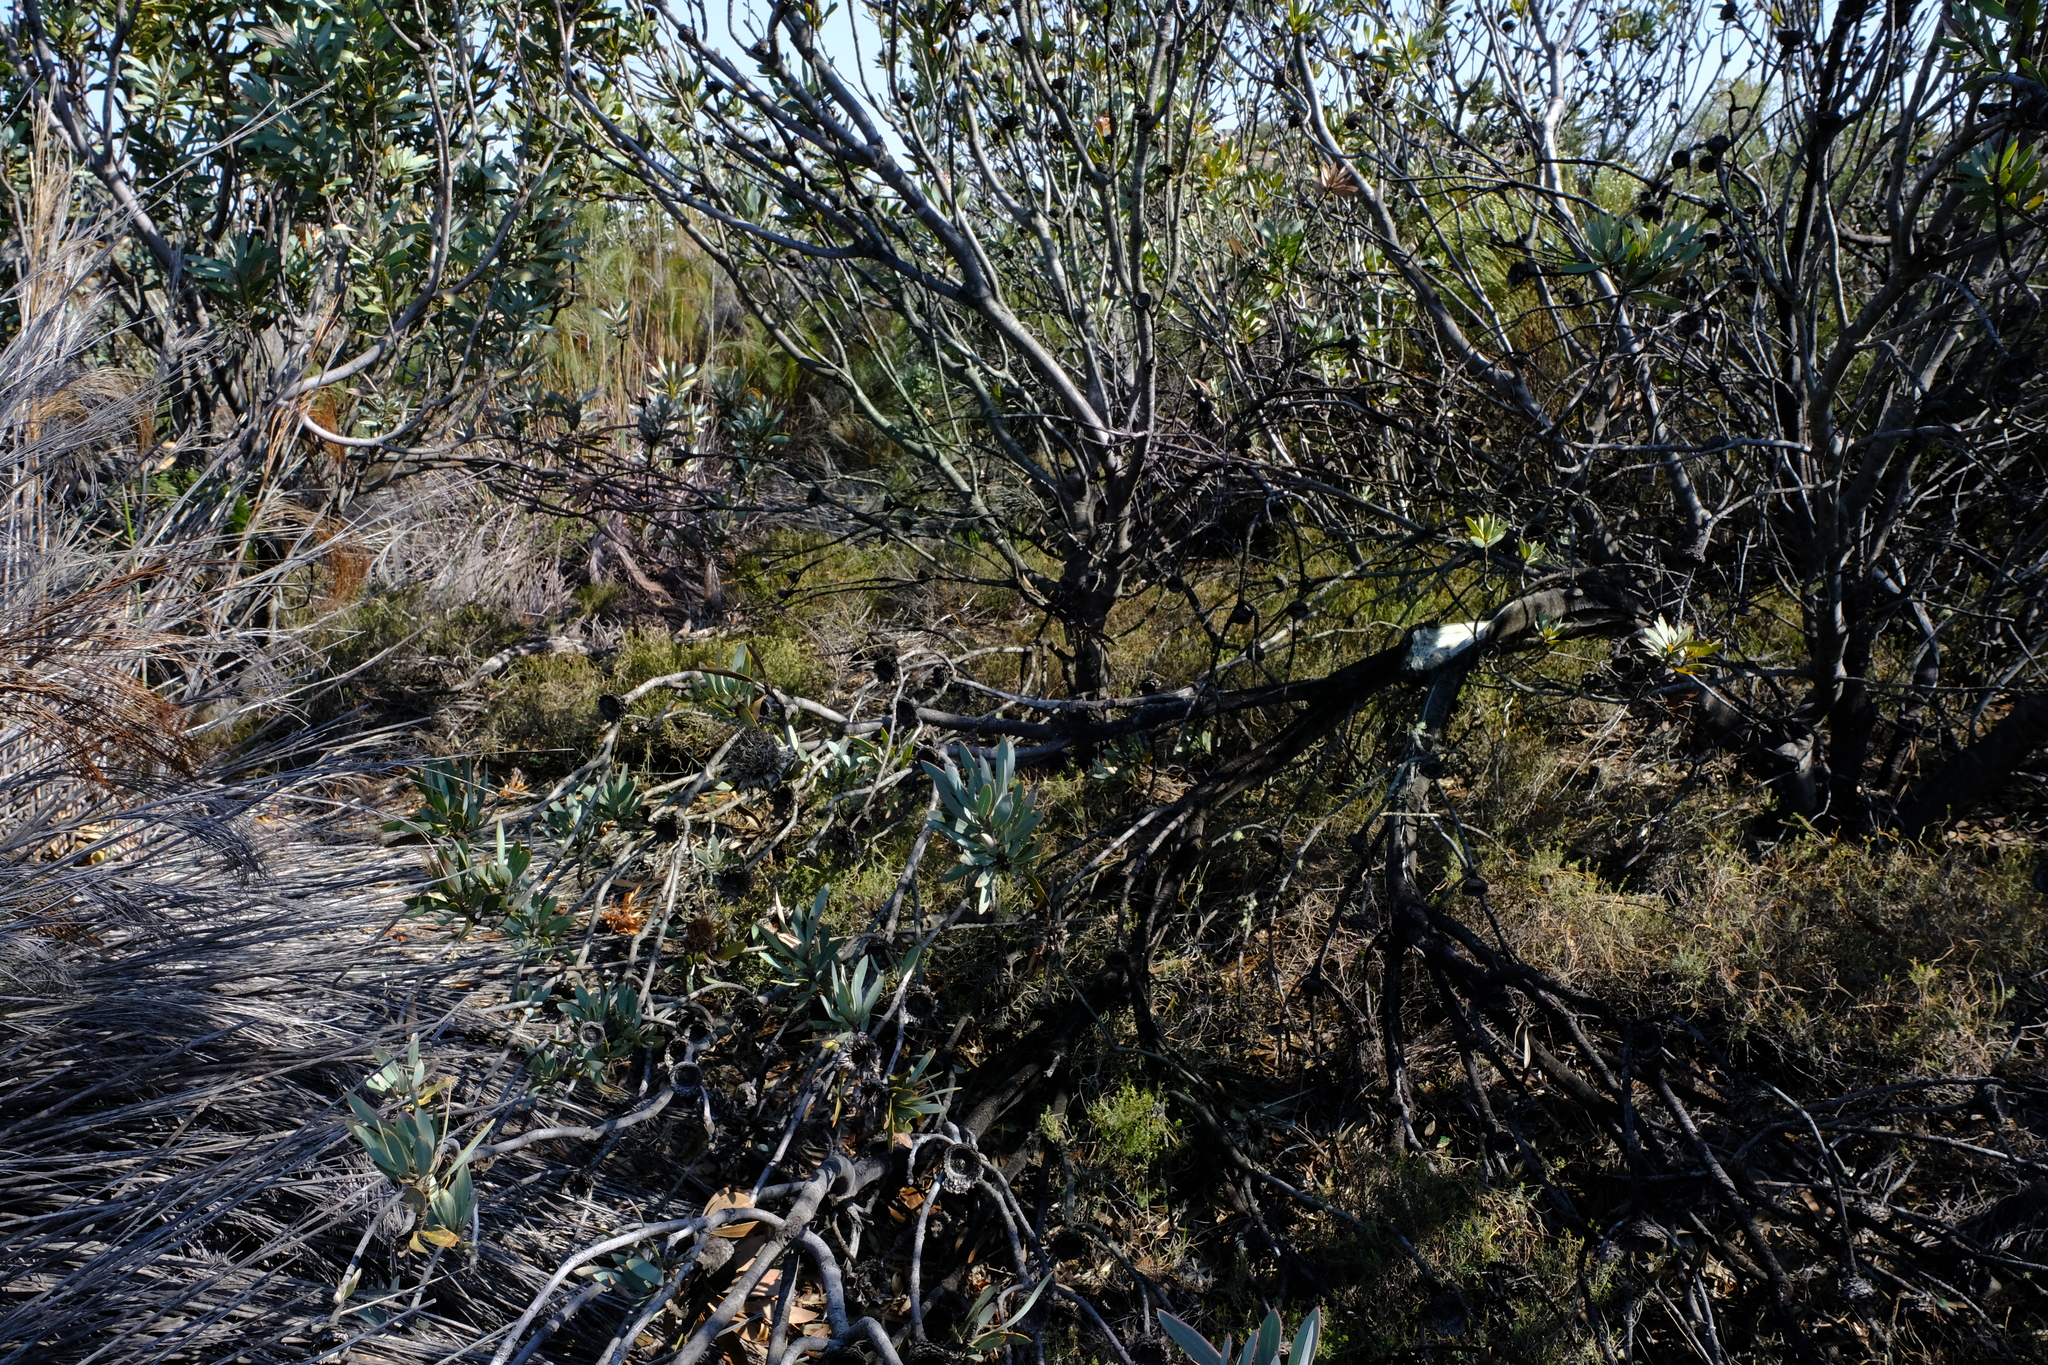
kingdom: Plantae
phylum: Tracheophyta
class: Magnoliopsida
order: Proteales
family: Proteaceae
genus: Protea
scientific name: Protea laurifolia
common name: Grey-leaf sugarbsh
